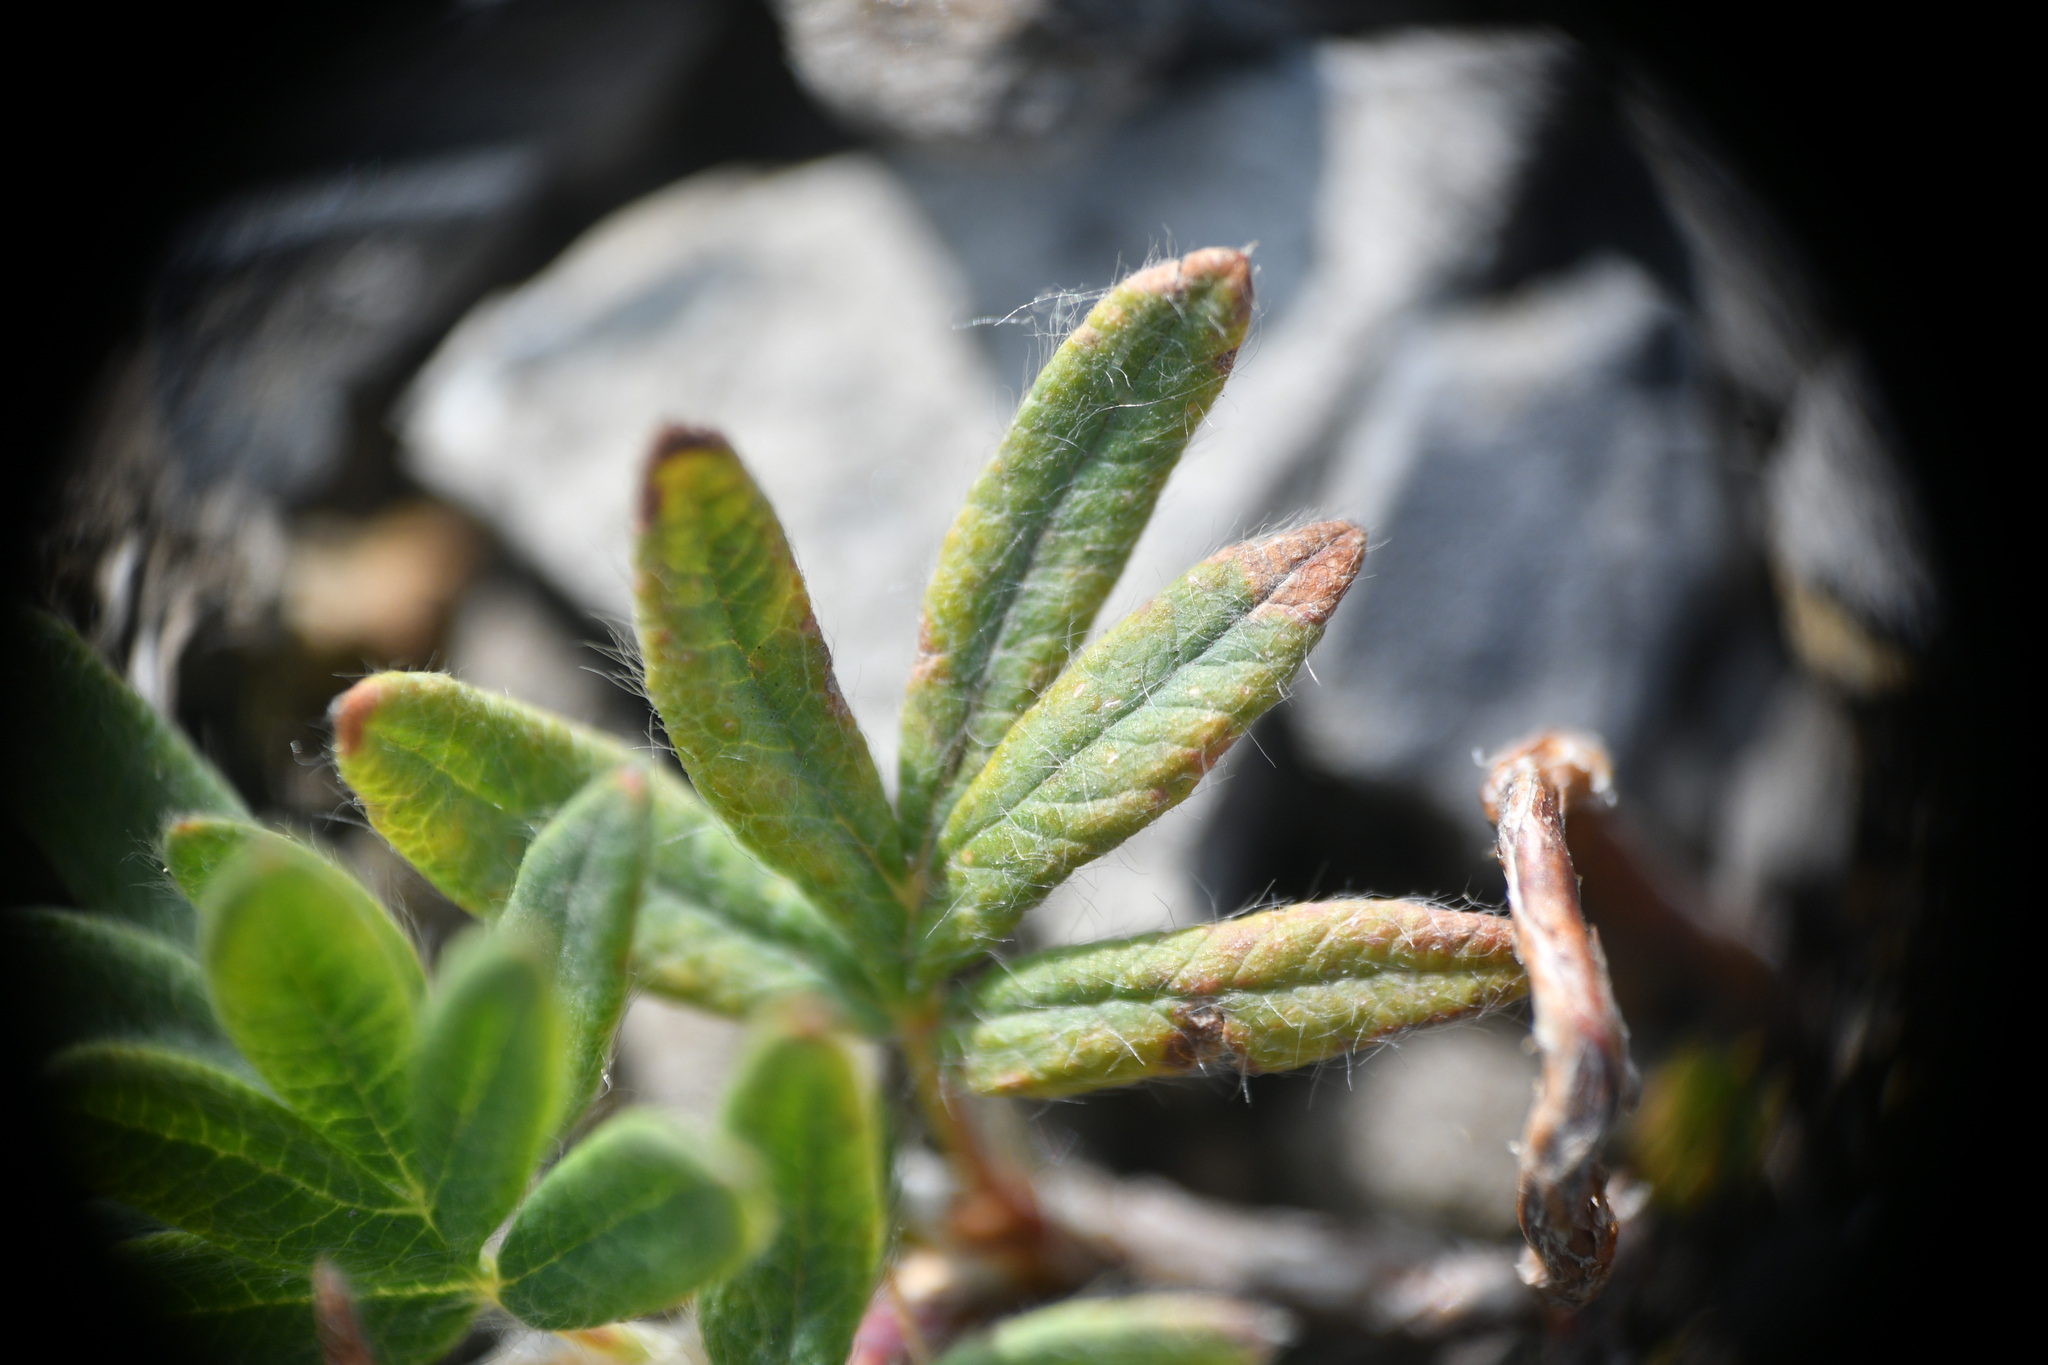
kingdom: Plantae
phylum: Tracheophyta
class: Magnoliopsida
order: Rosales
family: Rosaceae
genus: Dasiphora
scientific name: Dasiphora fruticosa
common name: Shrubby cinquefoil
